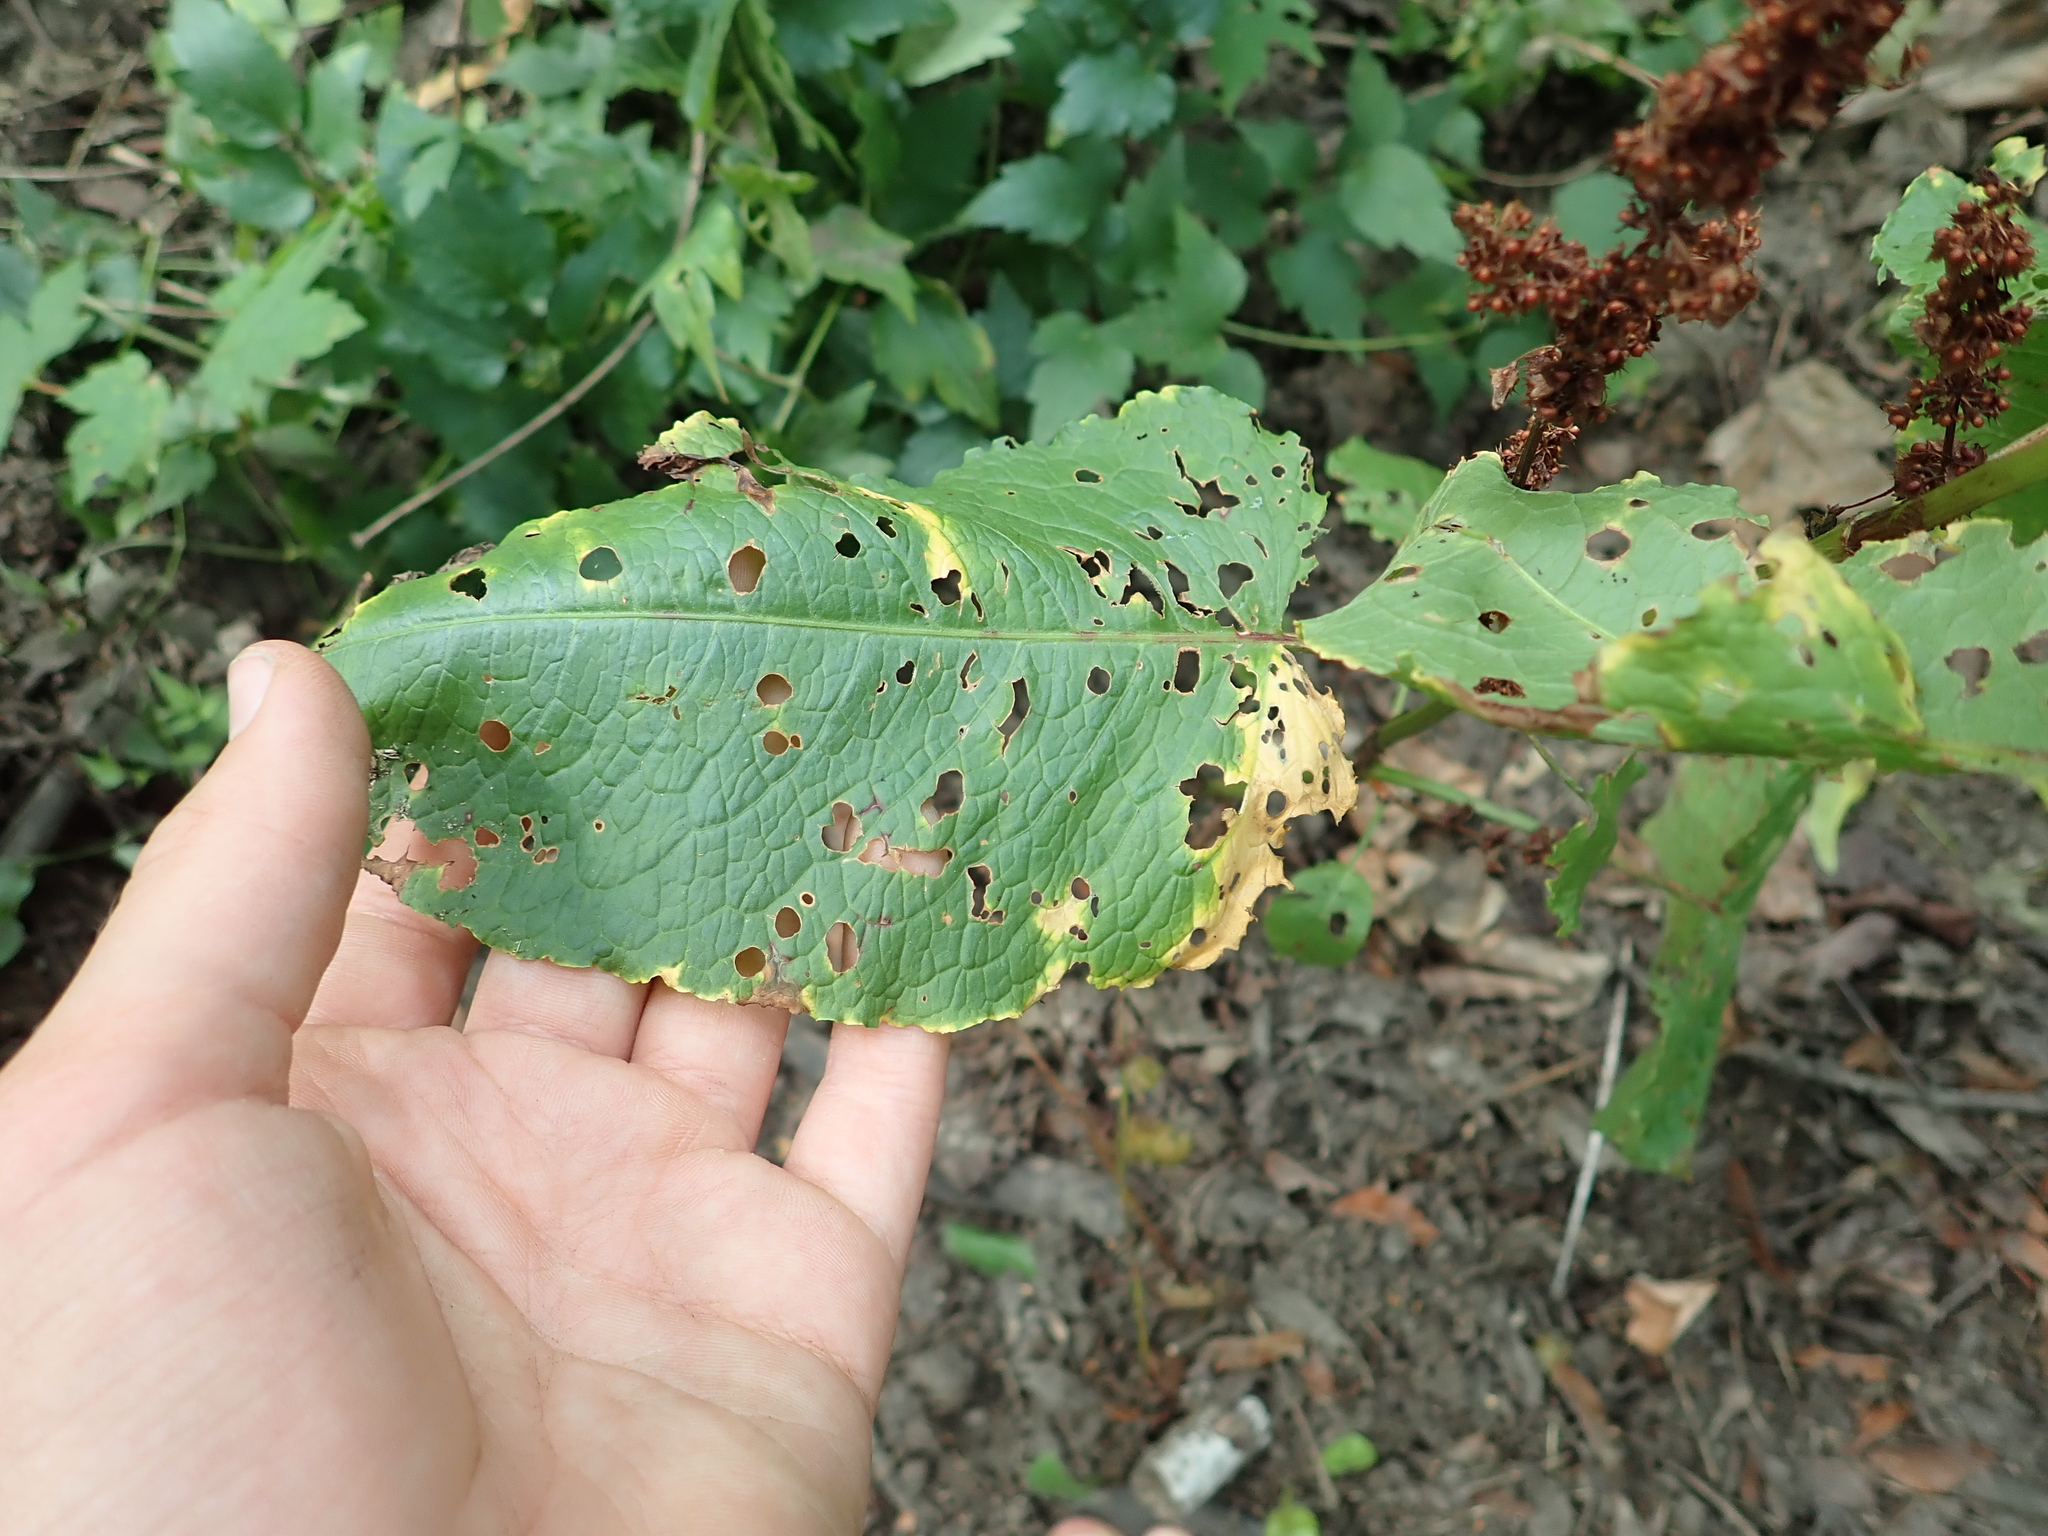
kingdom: Plantae
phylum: Tracheophyta
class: Magnoliopsida
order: Caryophyllales
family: Polygonaceae
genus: Rumex
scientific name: Rumex obtusifolius
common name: Bitter dock
